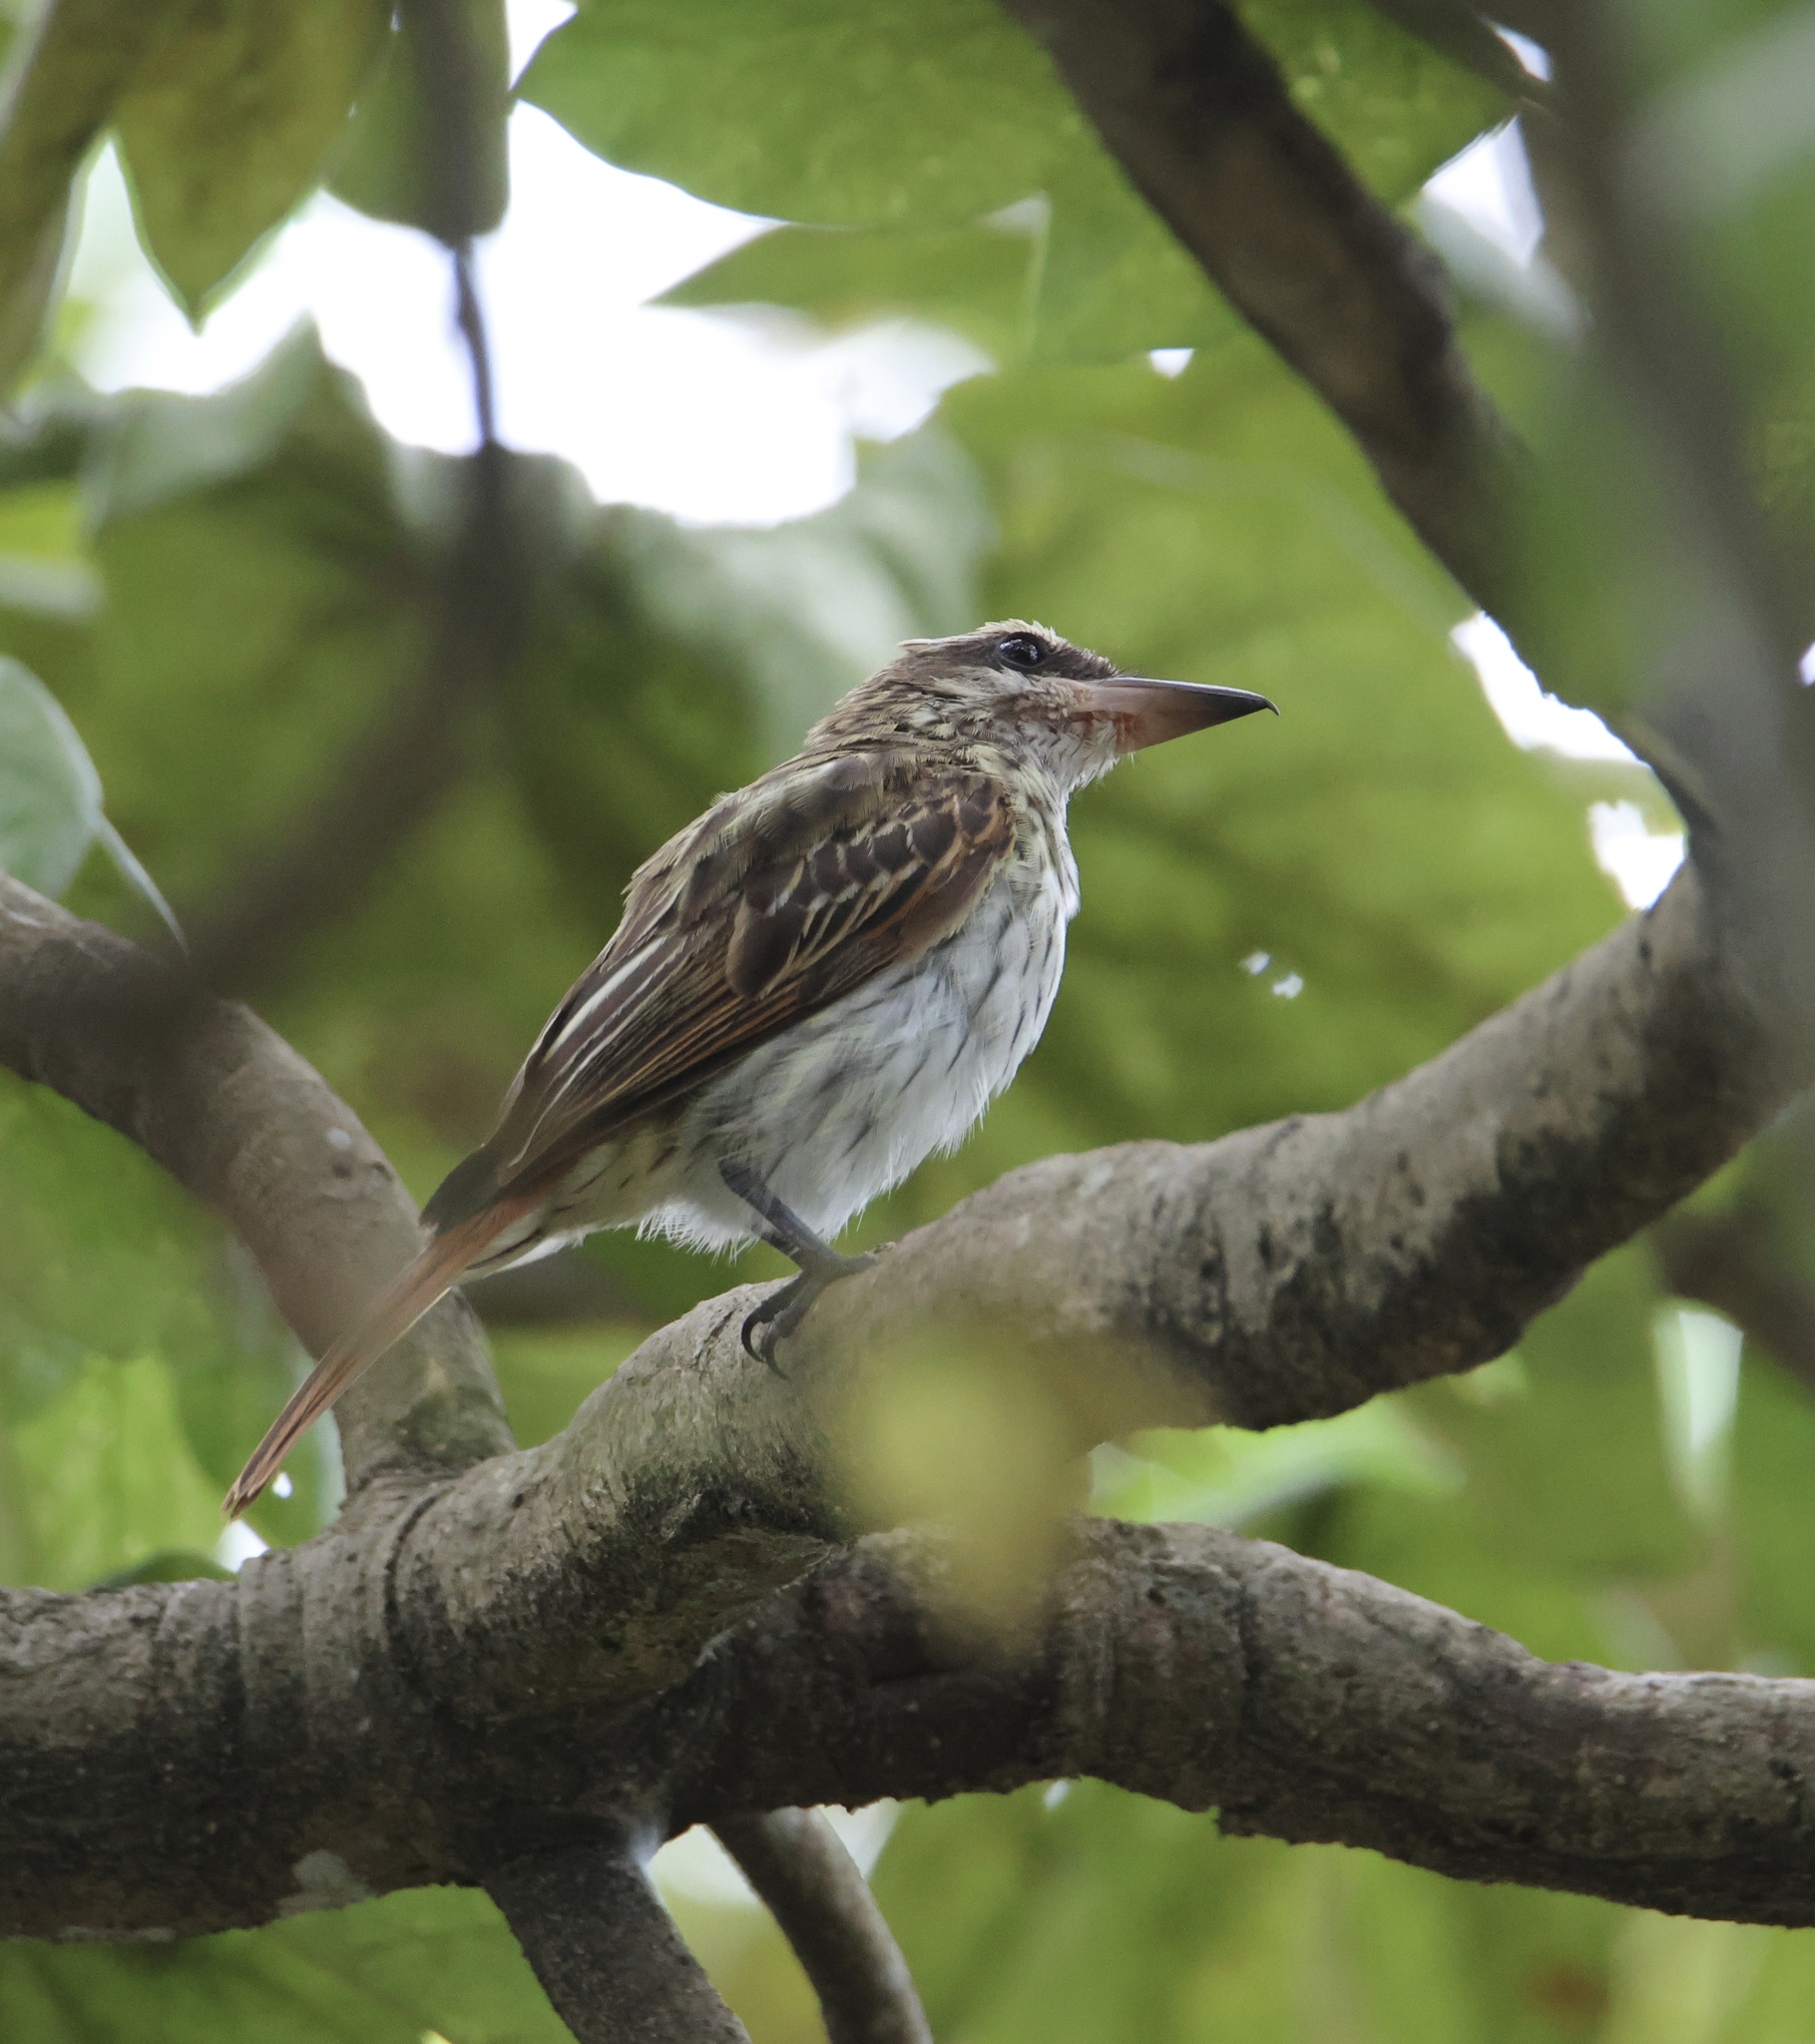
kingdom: Animalia
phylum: Chordata
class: Aves
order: Passeriformes
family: Tyrannidae
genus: Myiodynastes
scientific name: Myiodynastes maculatus
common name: Streaked flycatcher
